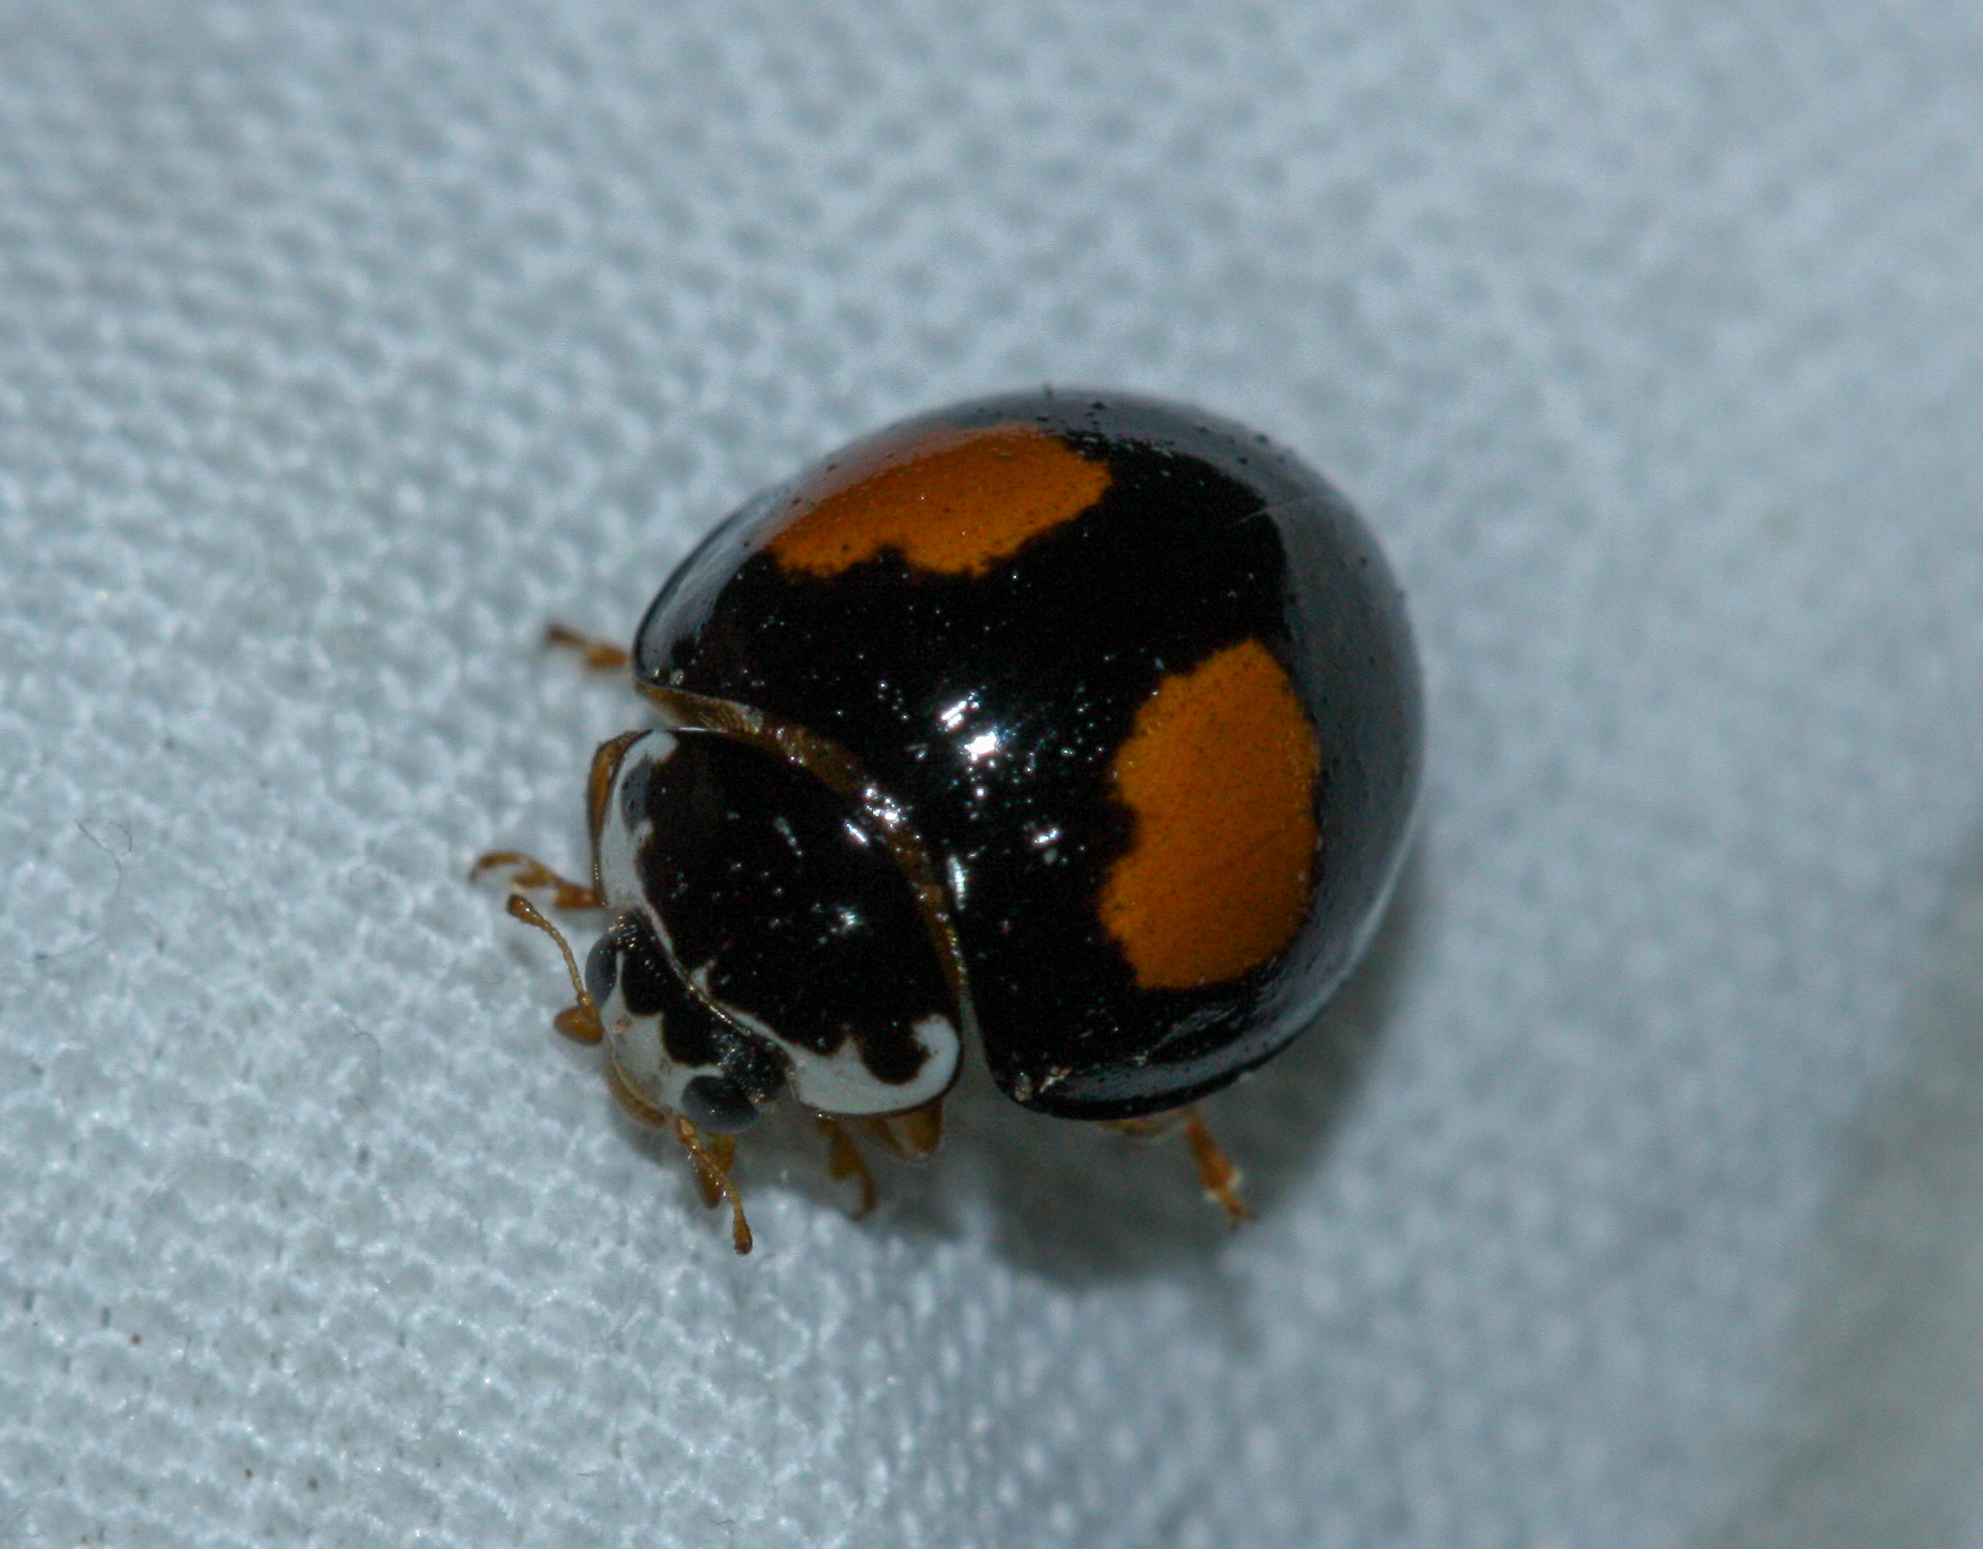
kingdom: Animalia
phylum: Arthropoda
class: Insecta
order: Coleoptera
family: Coccinellidae
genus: Olla
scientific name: Olla v-nigrum
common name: Ashy gray lady beetle
